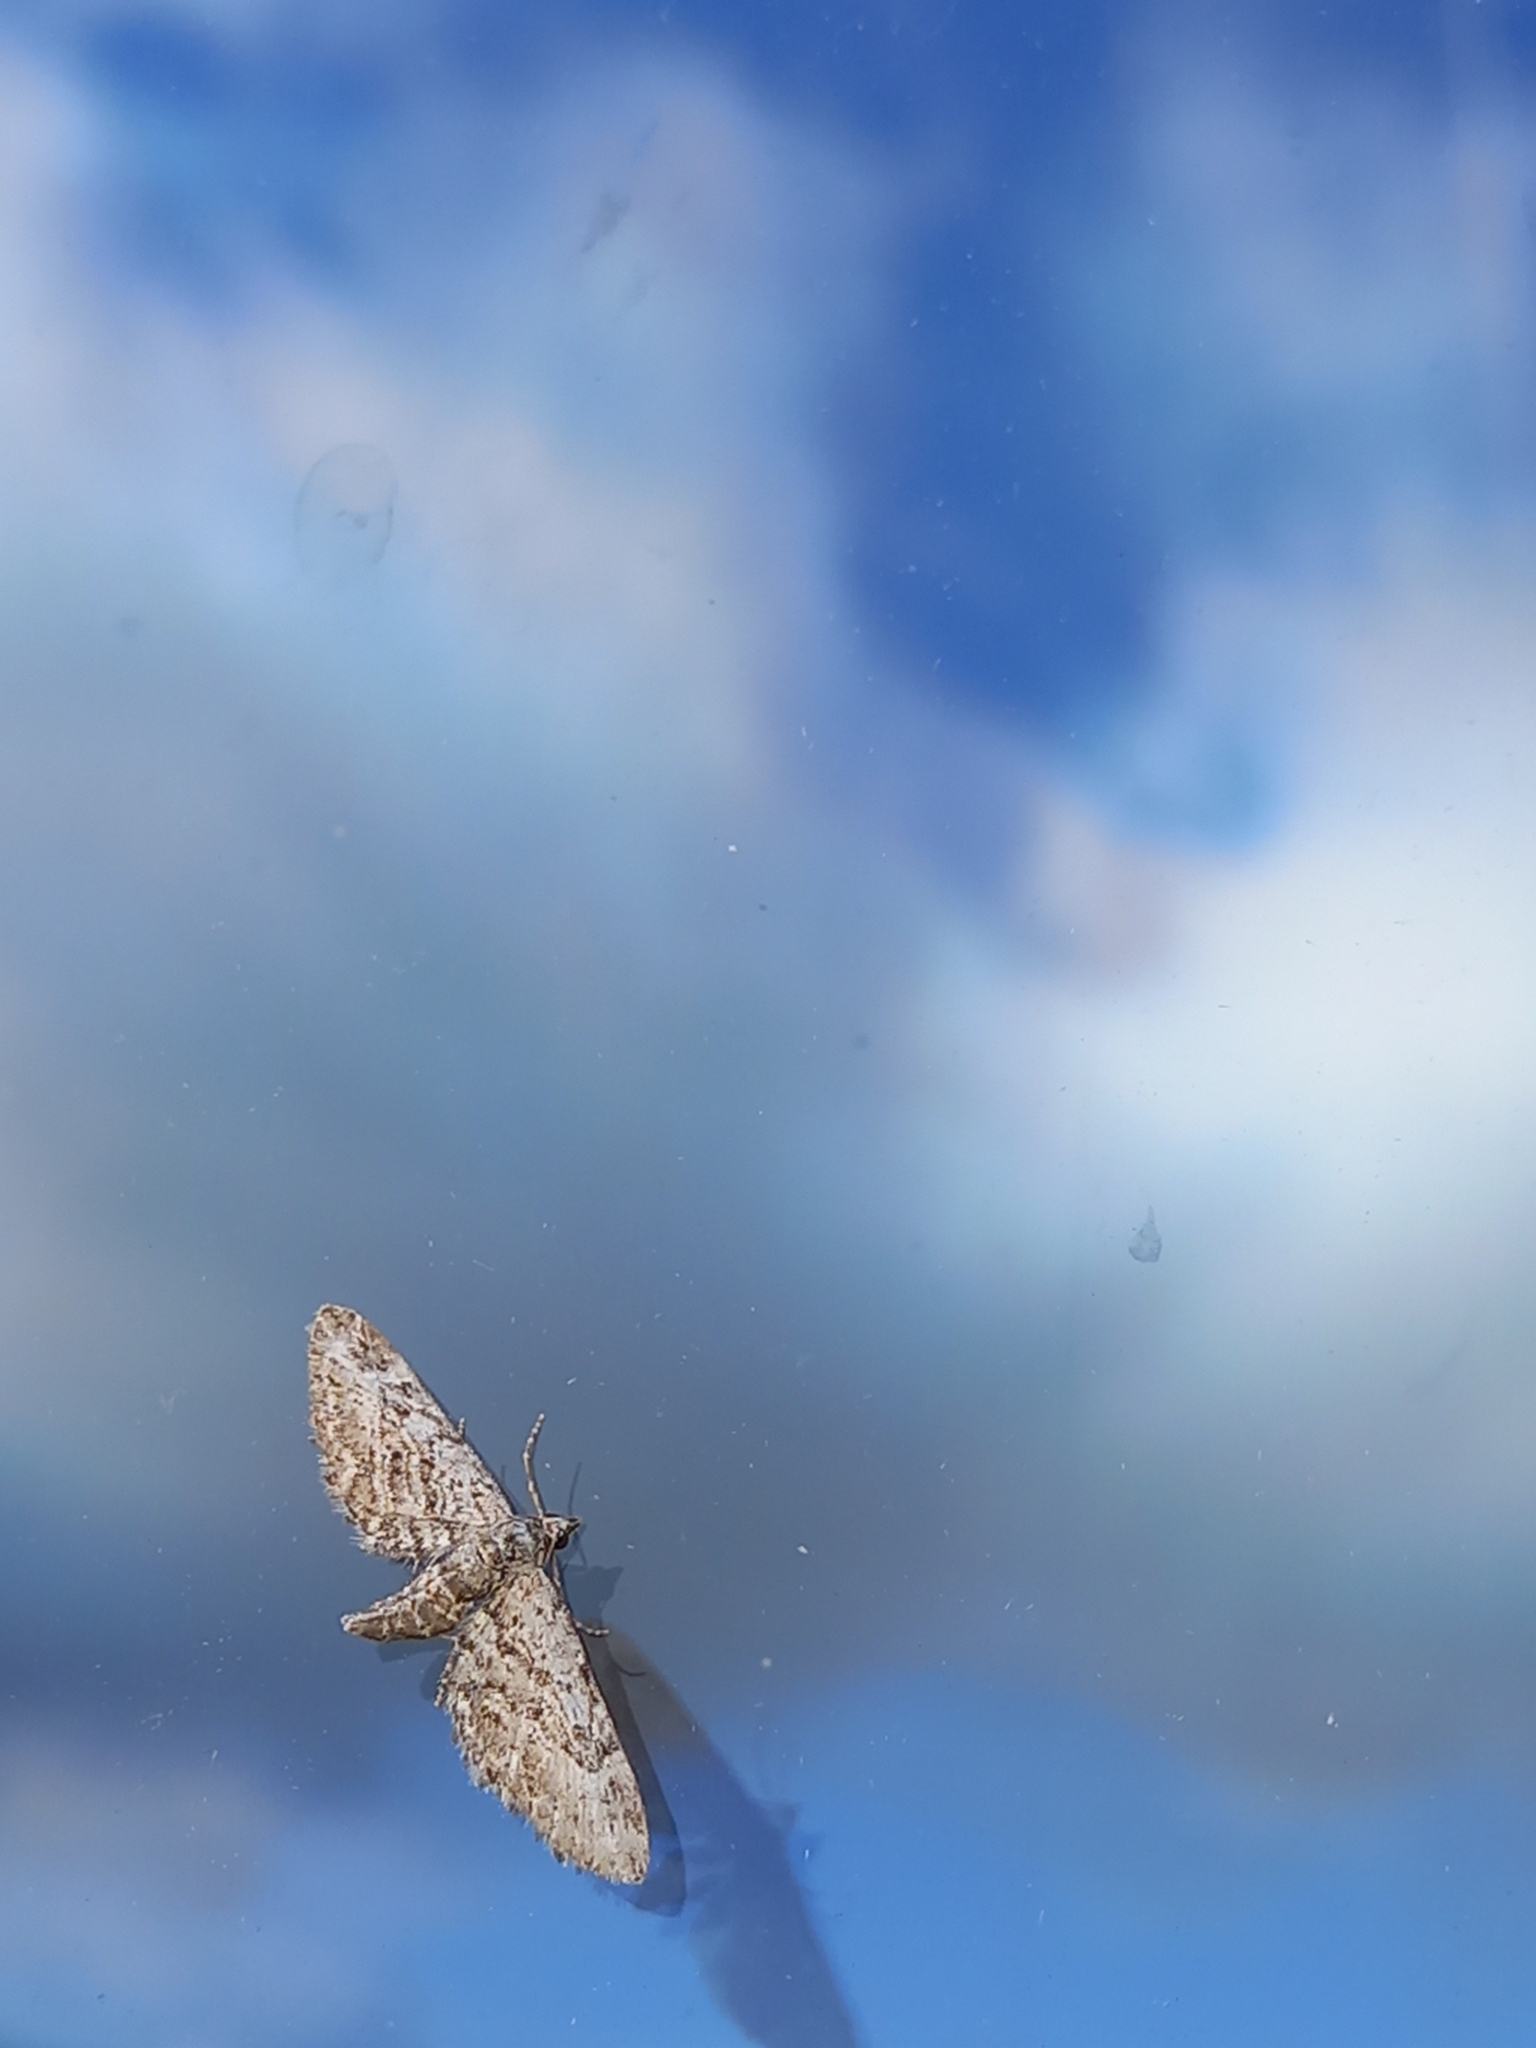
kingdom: Animalia
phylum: Arthropoda
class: Insecta
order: Lepidoptera
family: Geometridae
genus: Gymnoscelis
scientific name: Gymnoscelis rufifasciata
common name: Double-striped pug
